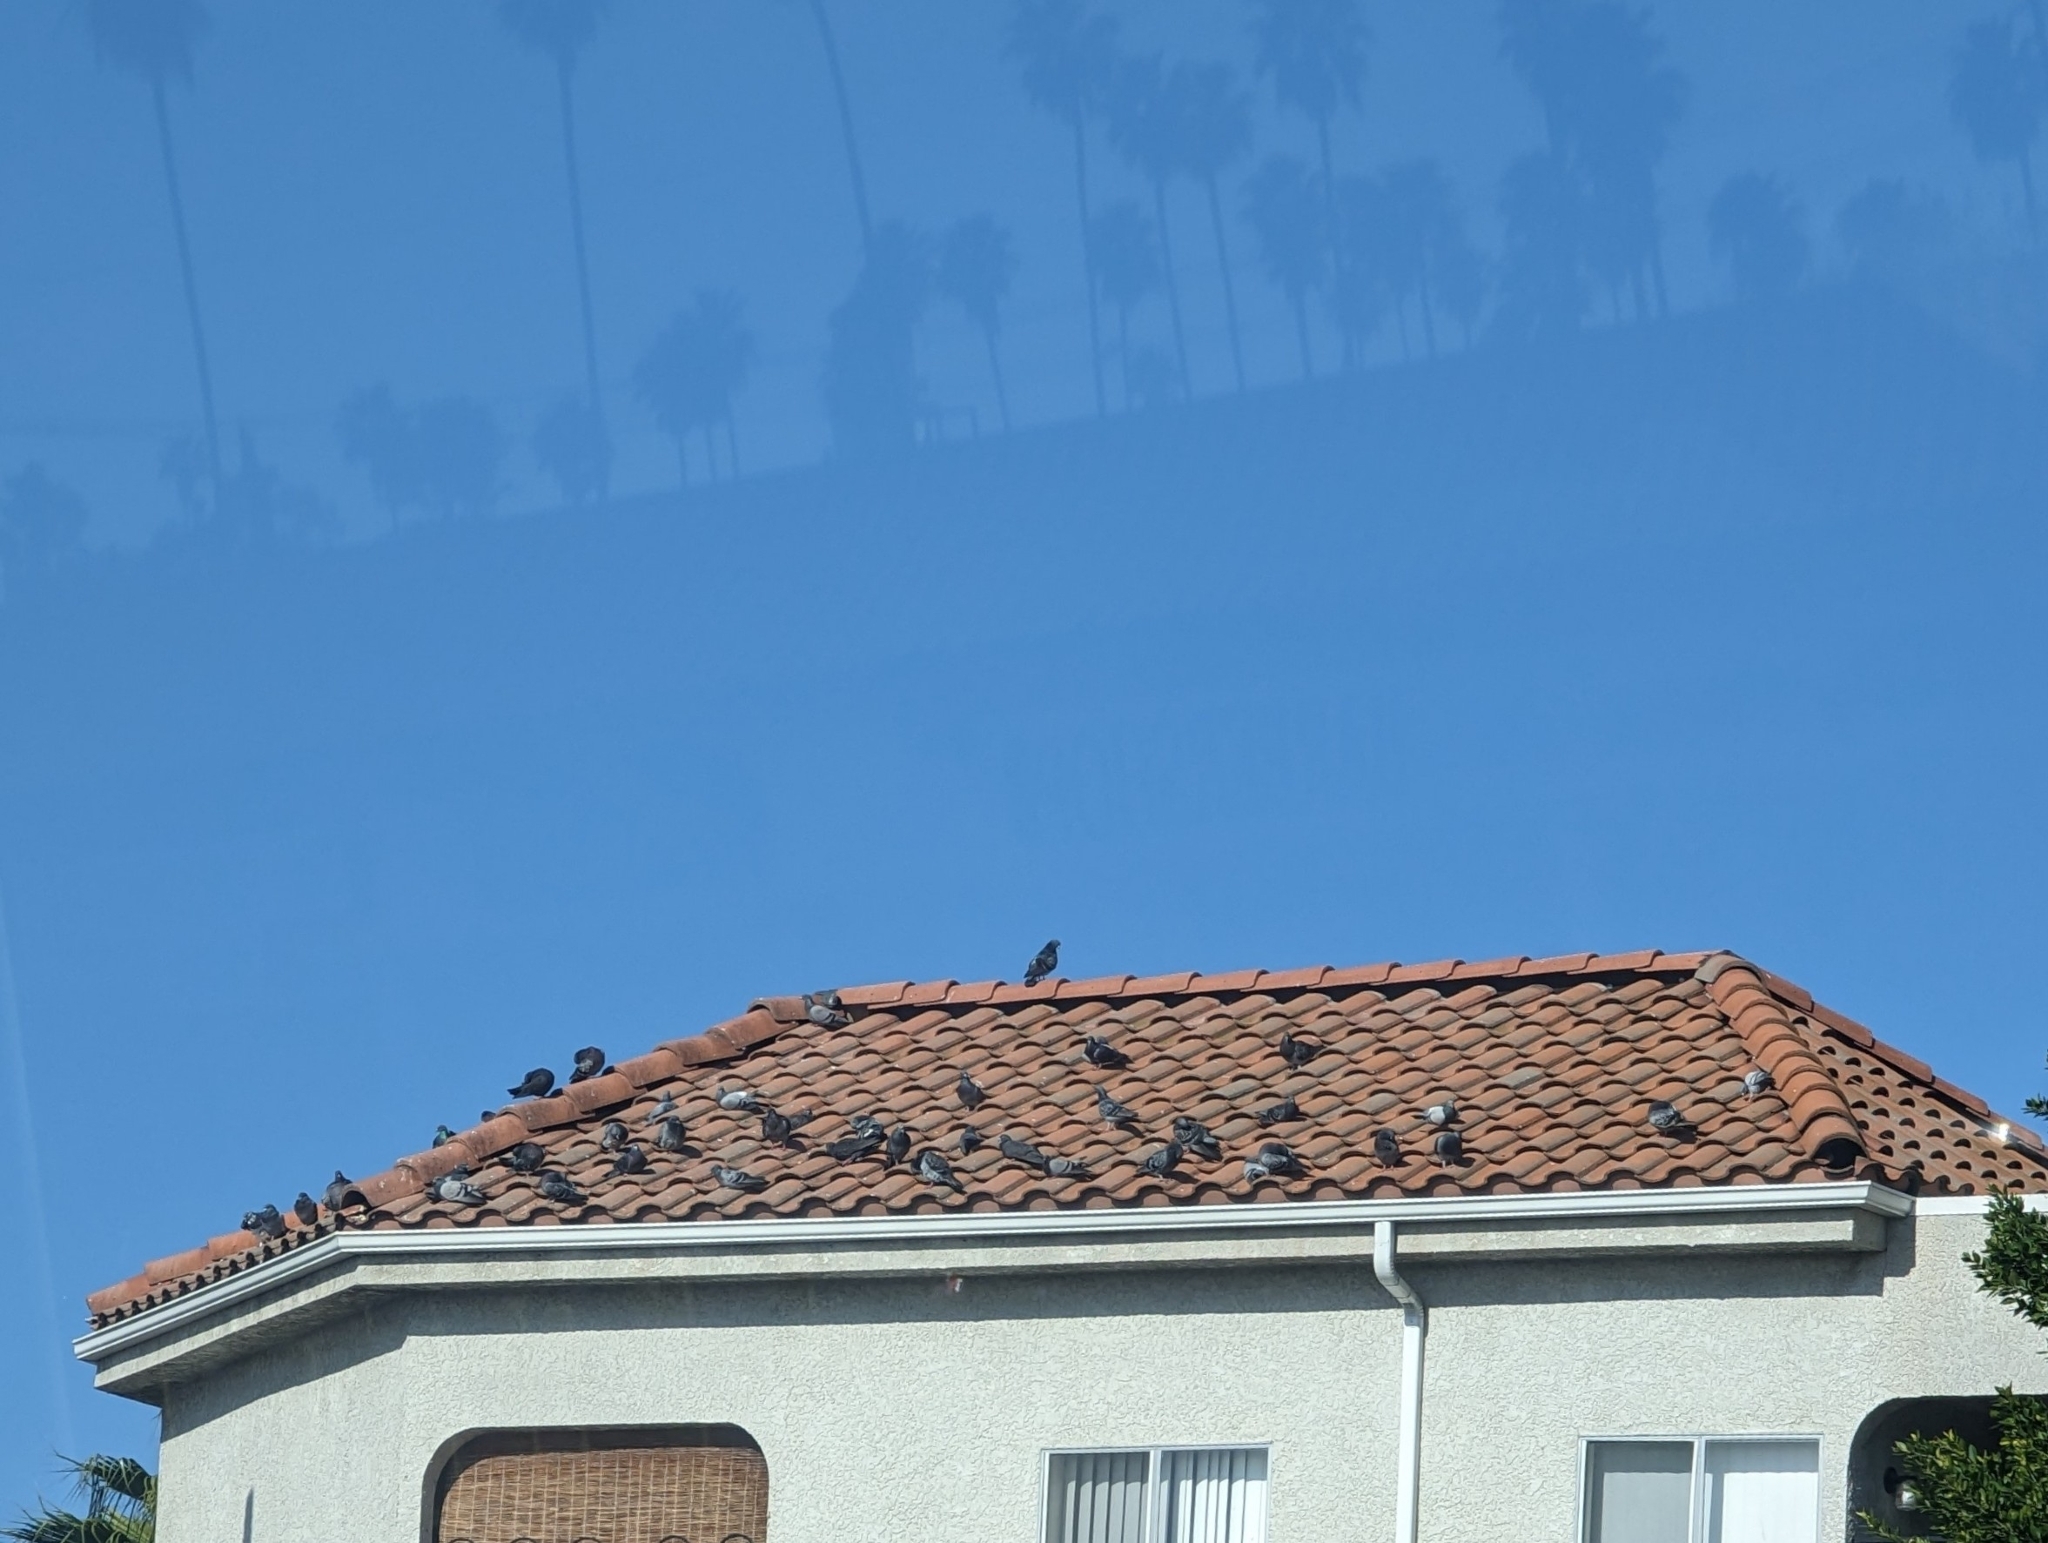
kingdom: Animalia
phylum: Chordata
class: Aves
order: Columbiformes
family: Columbidae
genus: Columba
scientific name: Columba livia
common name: Rock pigeon
